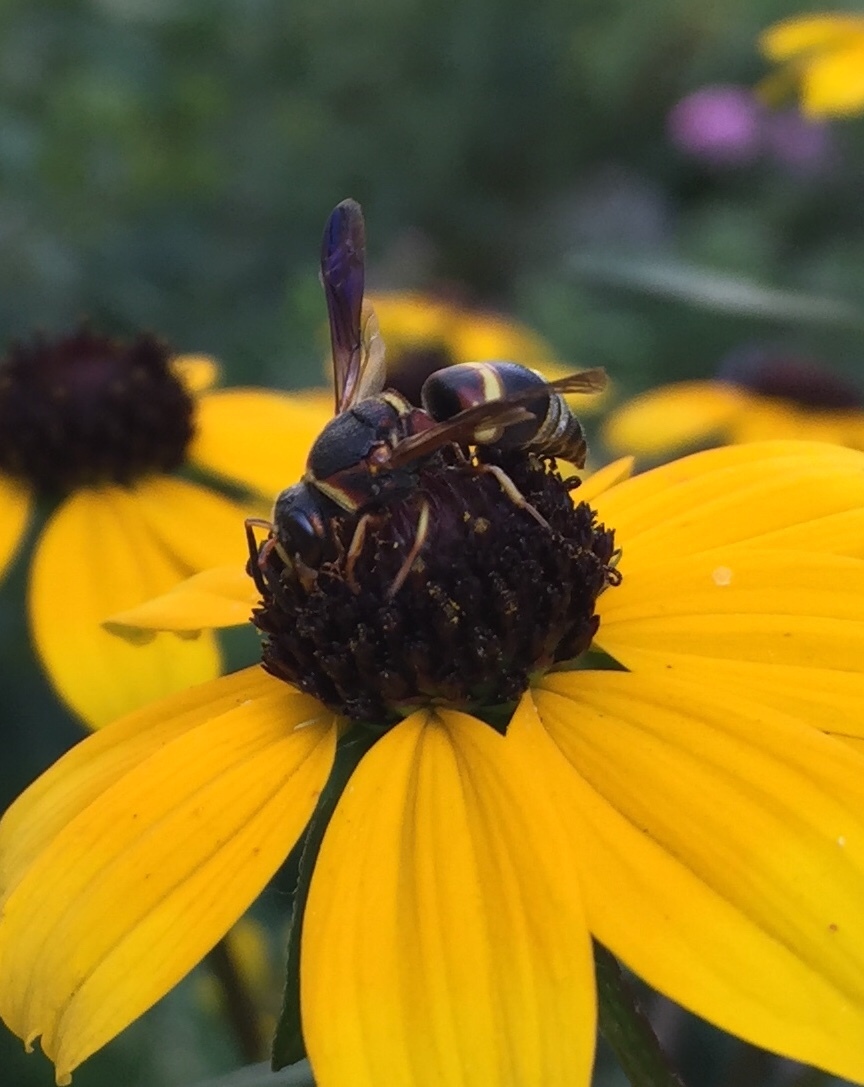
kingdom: Animalia
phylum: Arthropoda
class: Insecta
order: Hymenoptera
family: Eumenidae
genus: Euodynerus
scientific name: Euodynerus hidalgo
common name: Wasp
